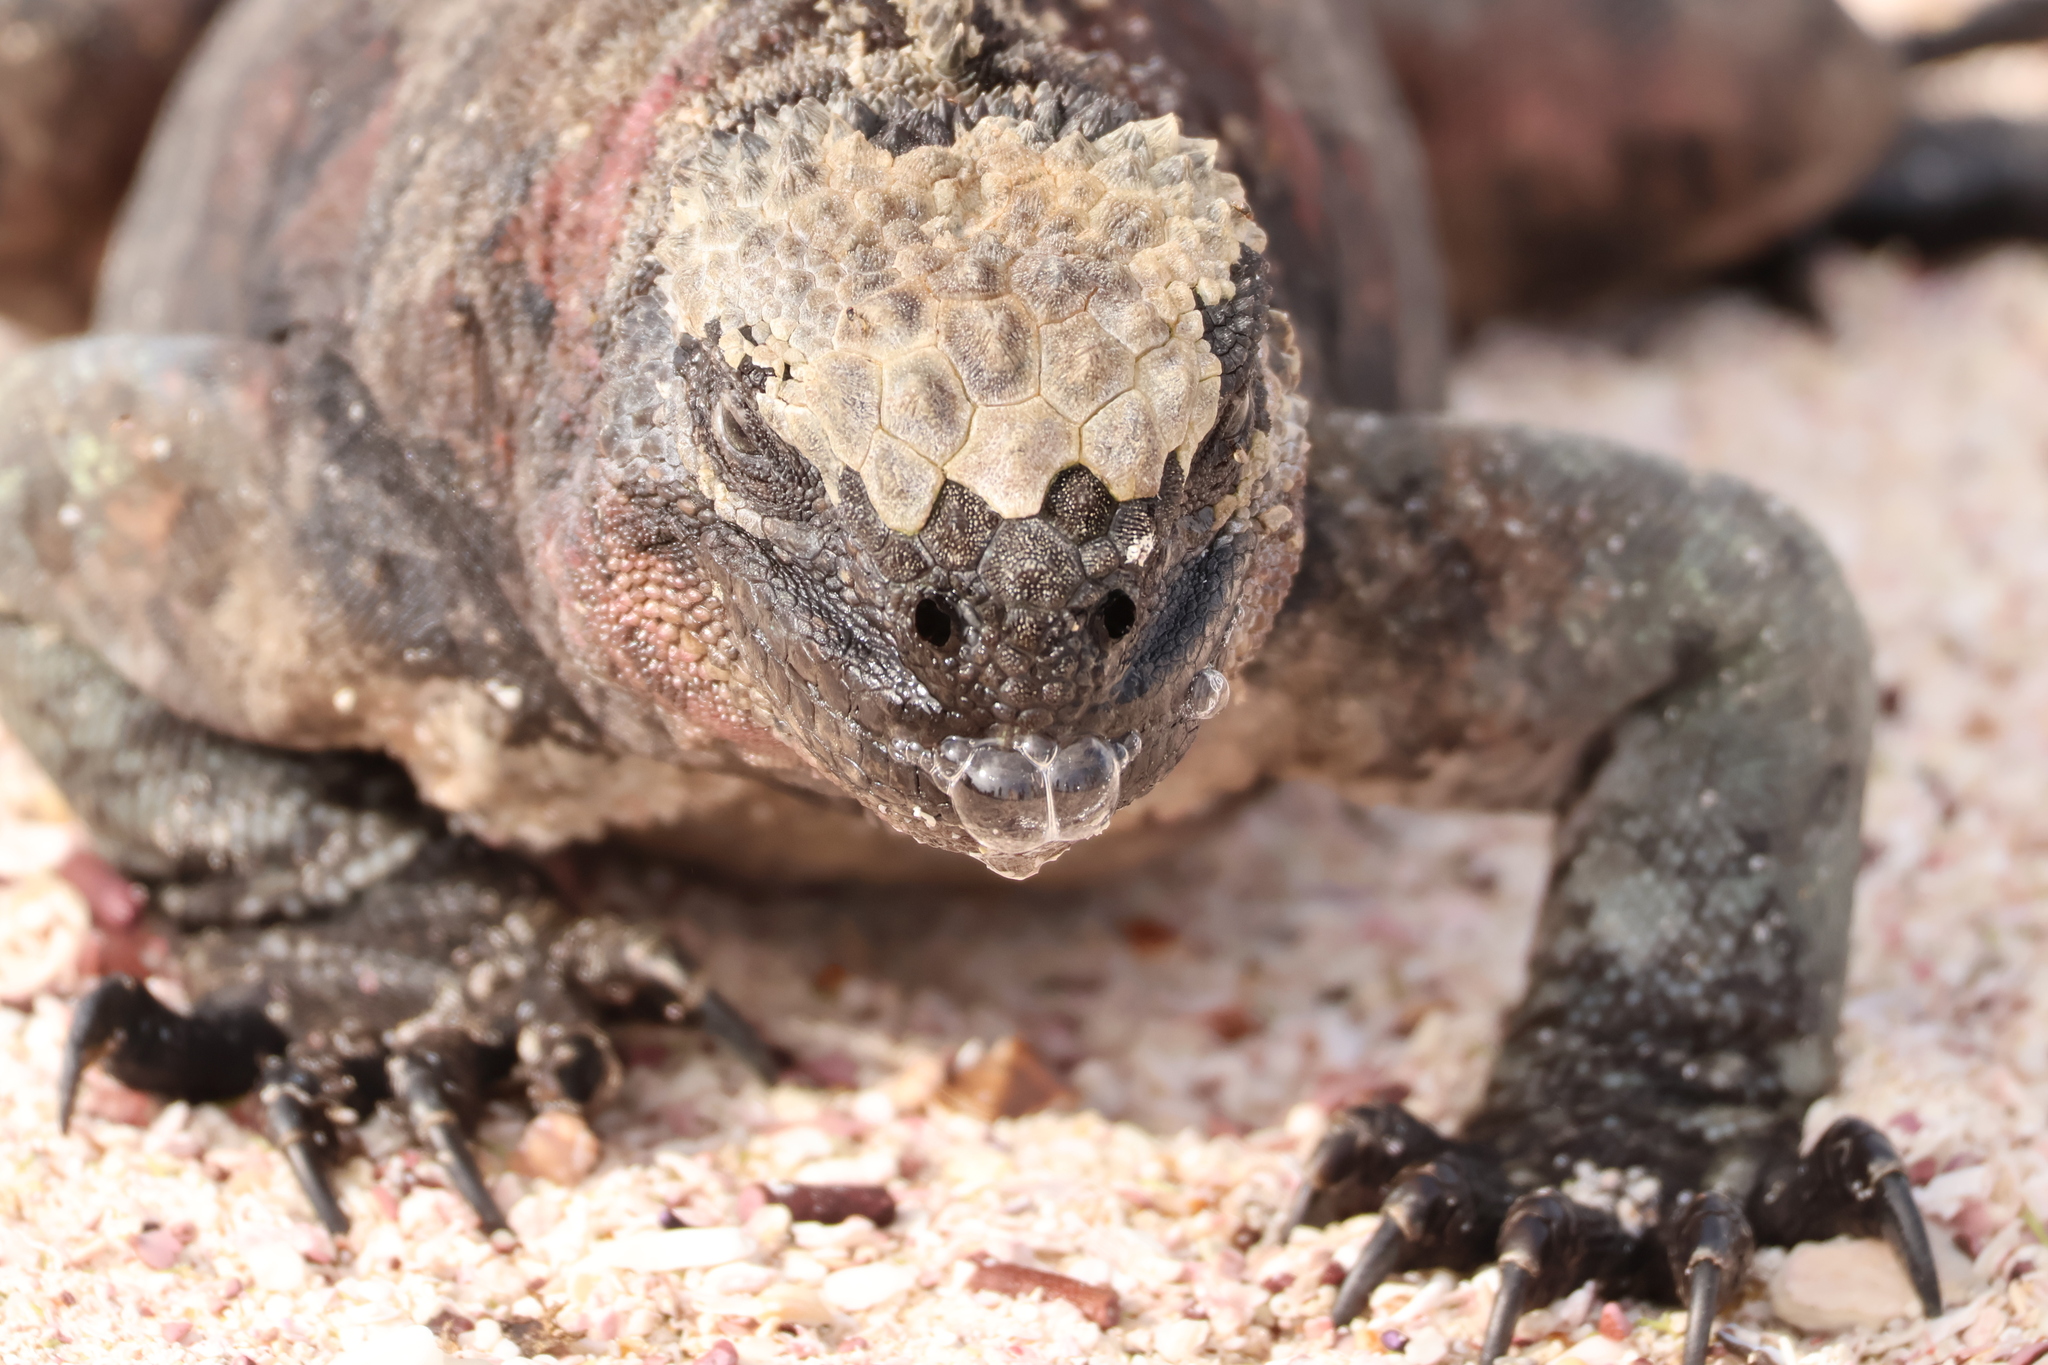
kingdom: Animalia
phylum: Chordata
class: Squamata
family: Iguanidae
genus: Amblyrhynchus
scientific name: Amblyrhynchus cristatus
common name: Marine iguana
